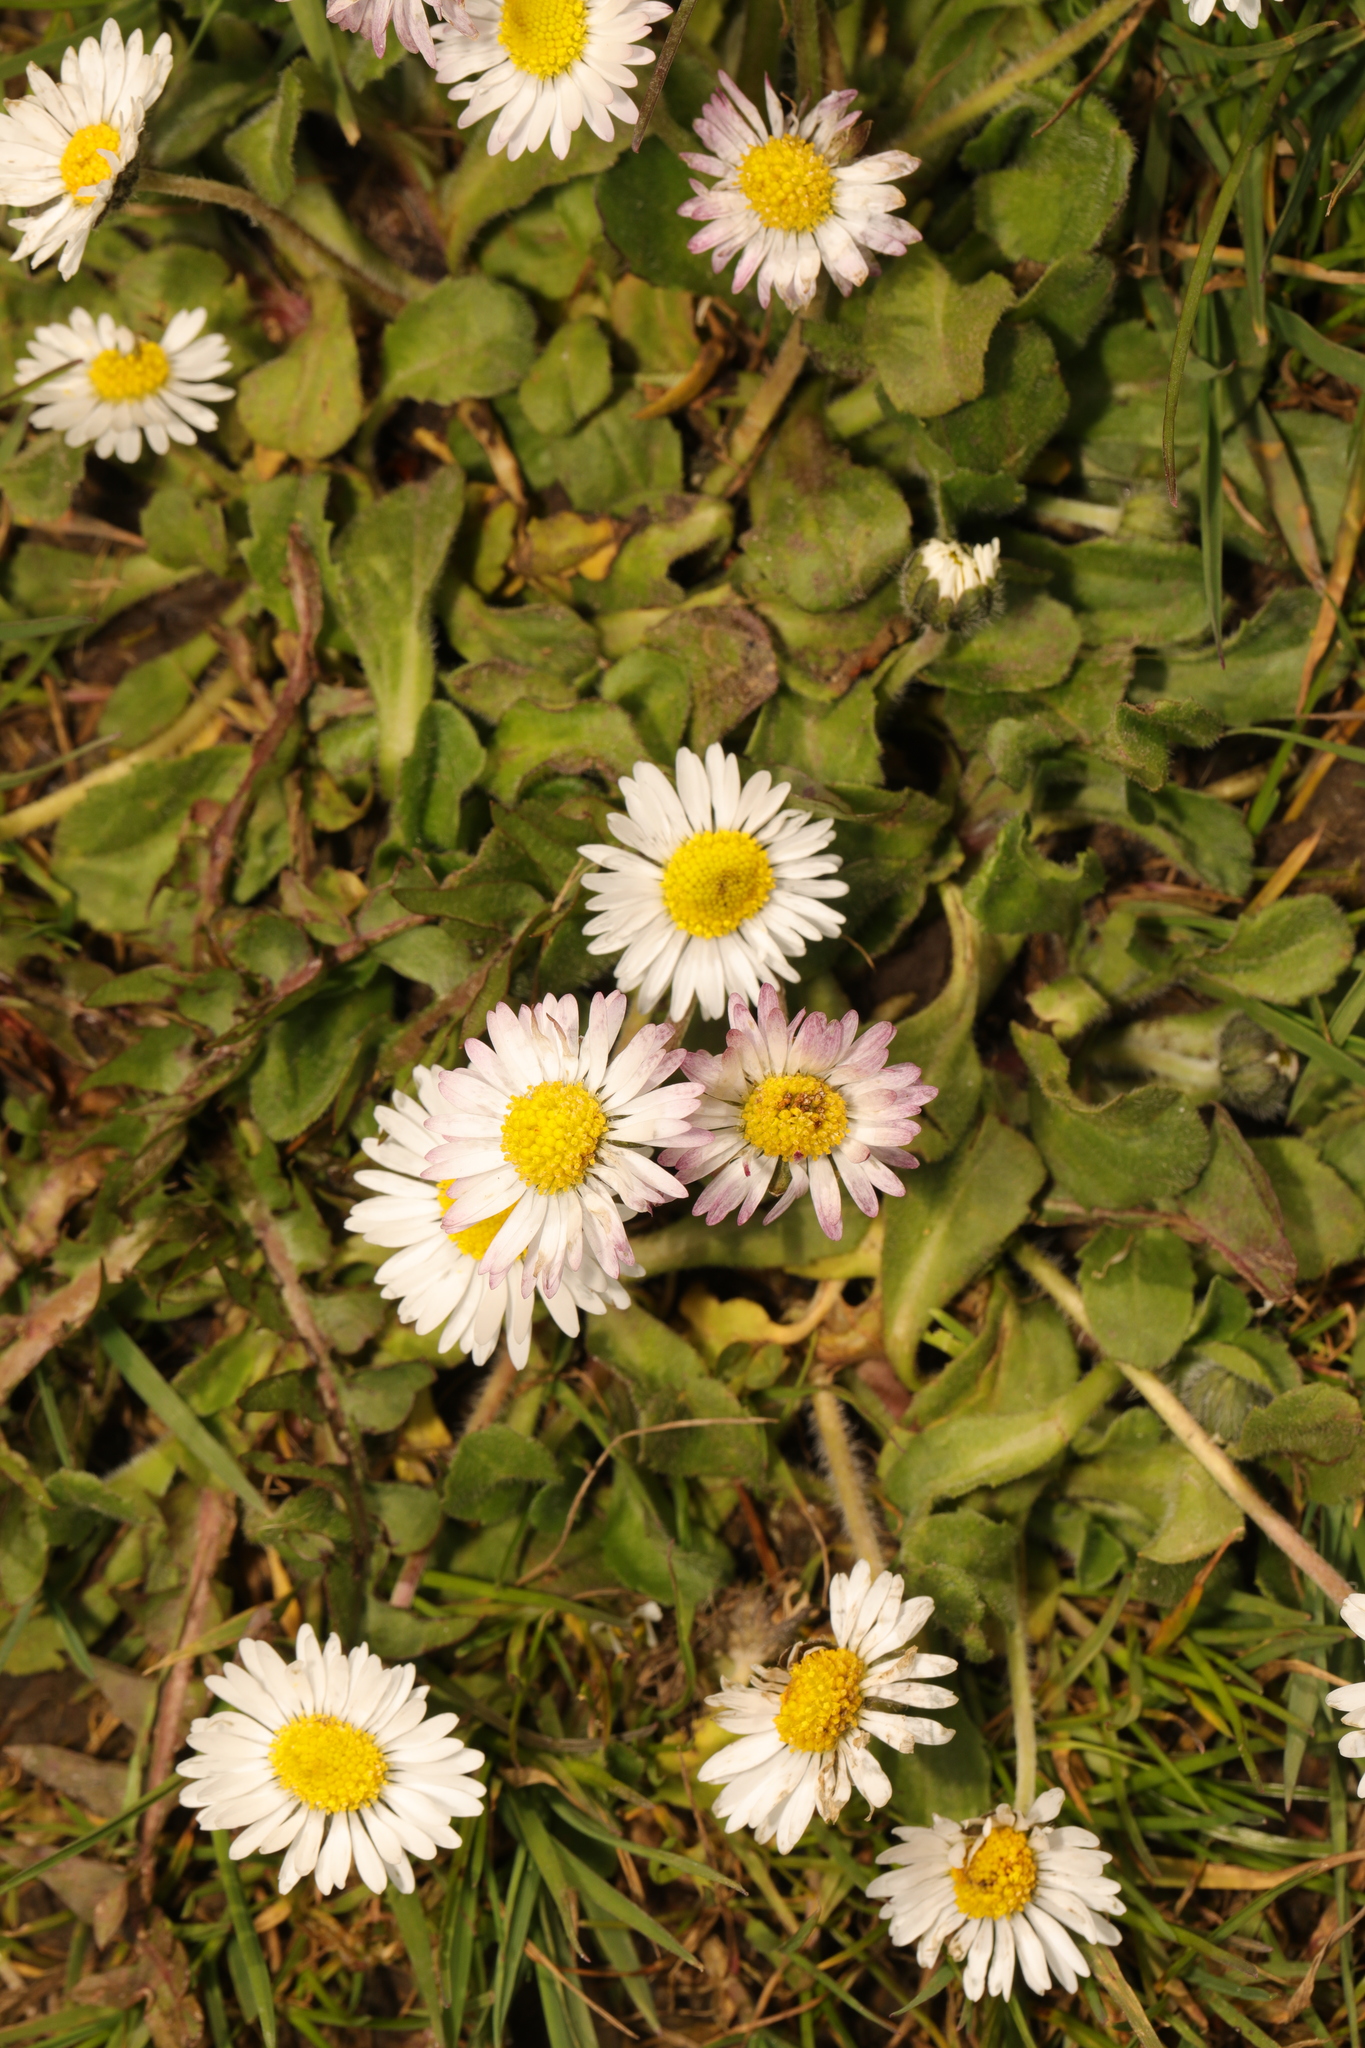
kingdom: Plantae
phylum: Tracheophyta
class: Magnoliopsida
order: Asterales
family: Asteraceae
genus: Bellis
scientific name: Bellis perennis
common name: Lawndaisy
